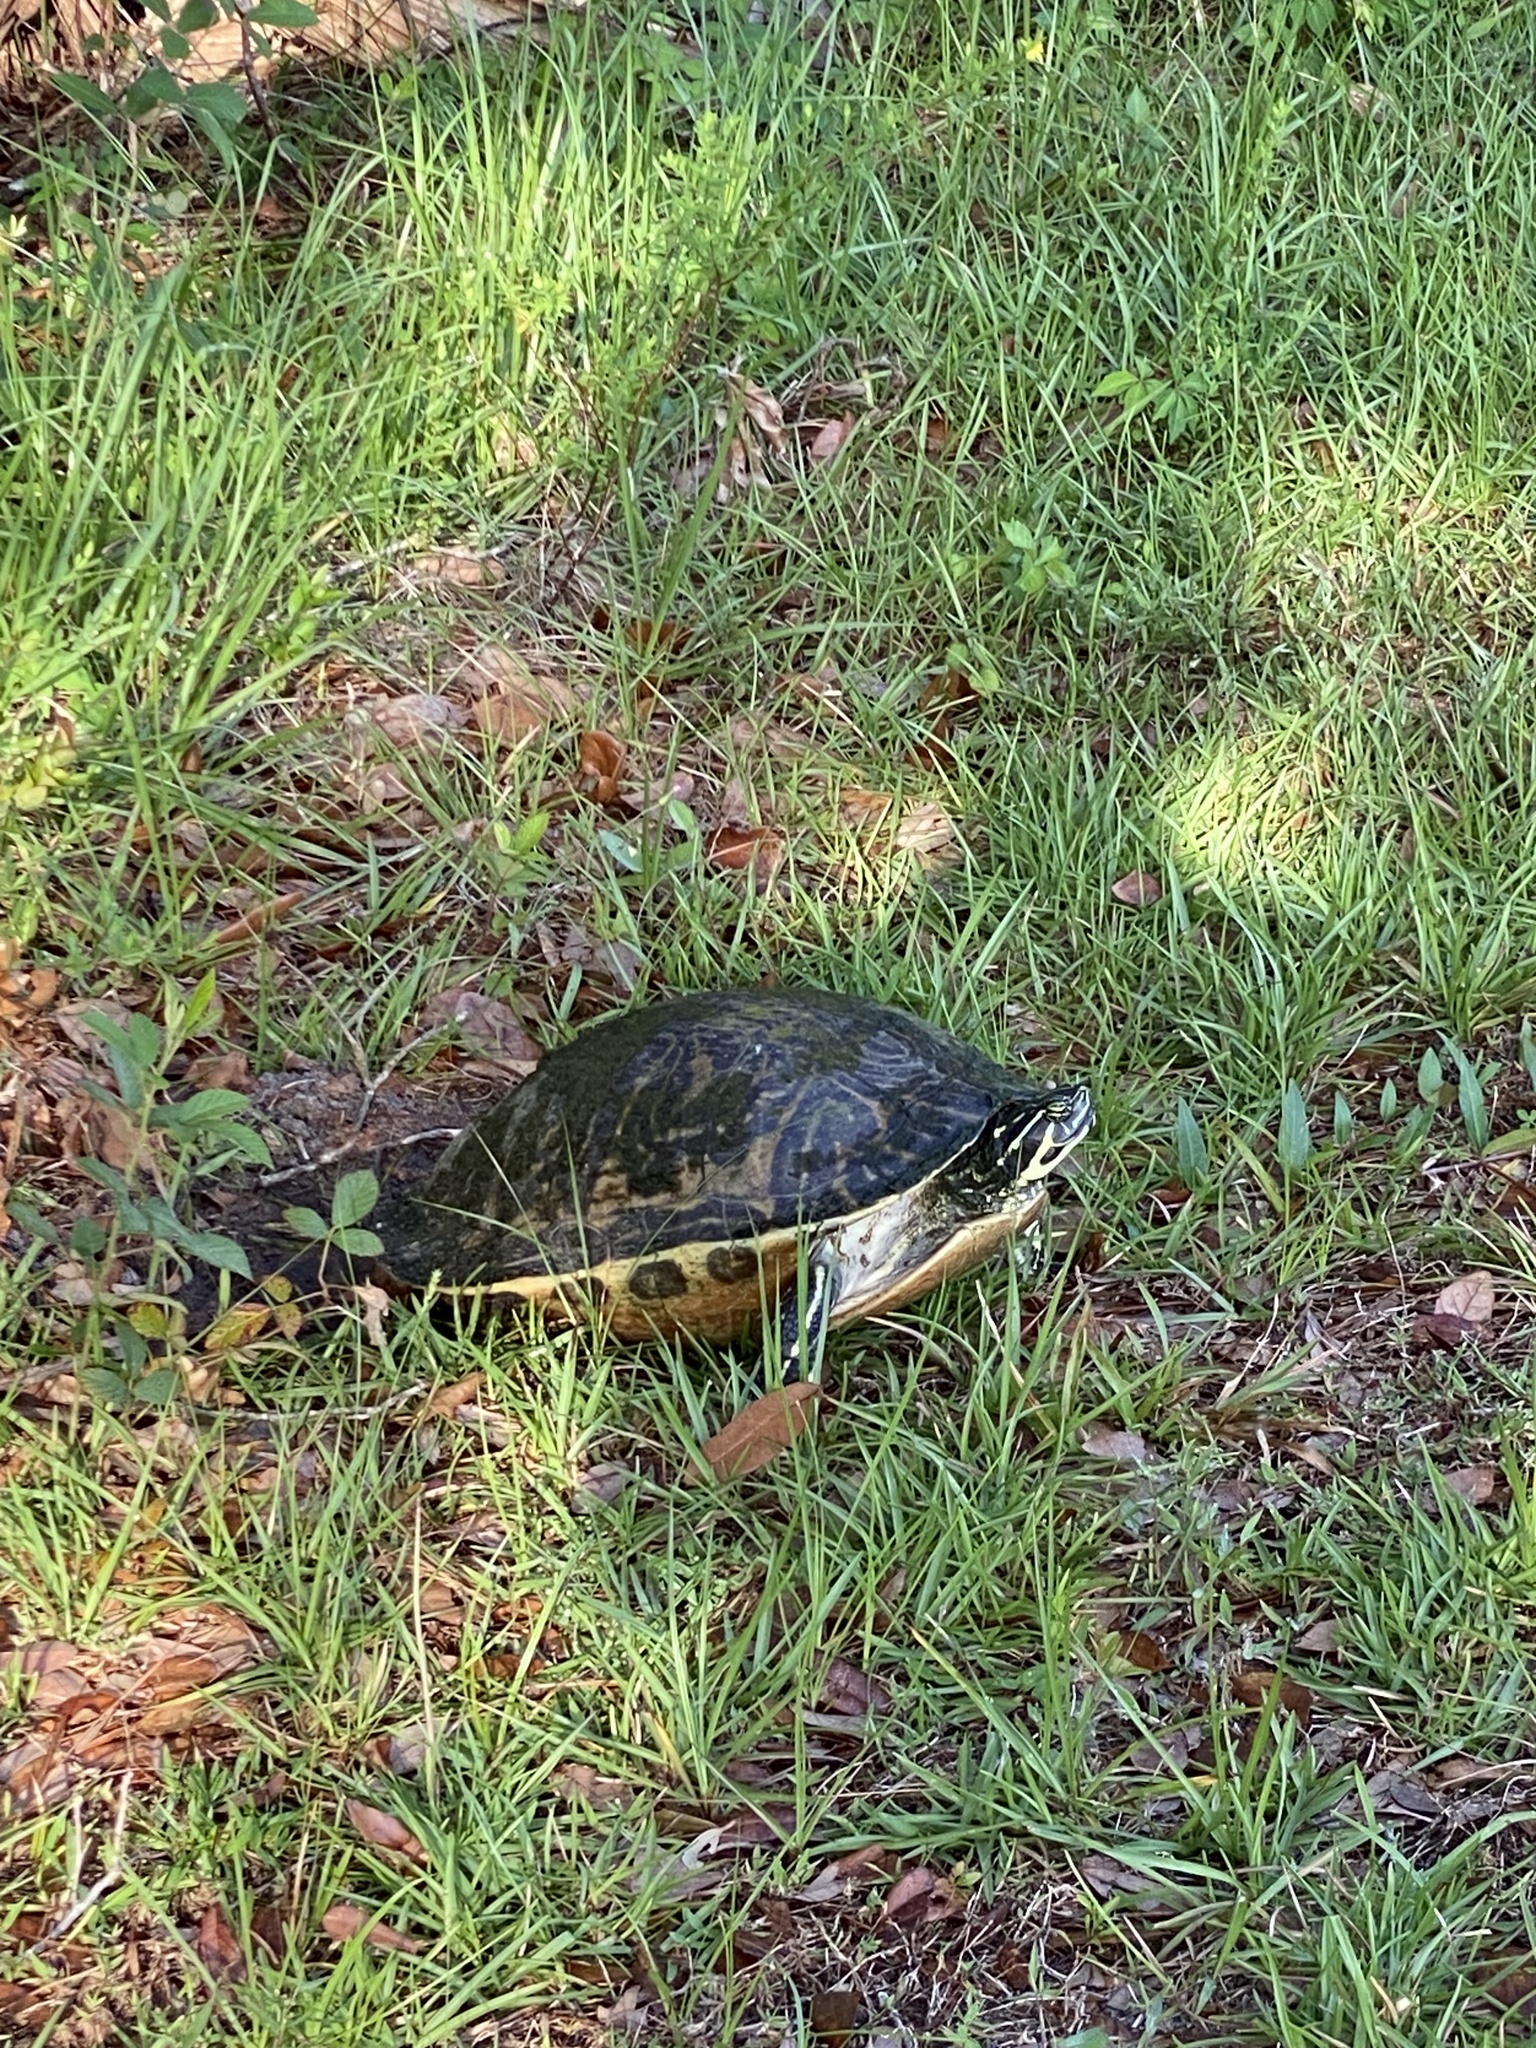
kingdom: Animalia
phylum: Chordata
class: Testudines
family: Emydidae
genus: Pseudemys
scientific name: Pseudemys peninsularis
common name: Peninsula cooter
